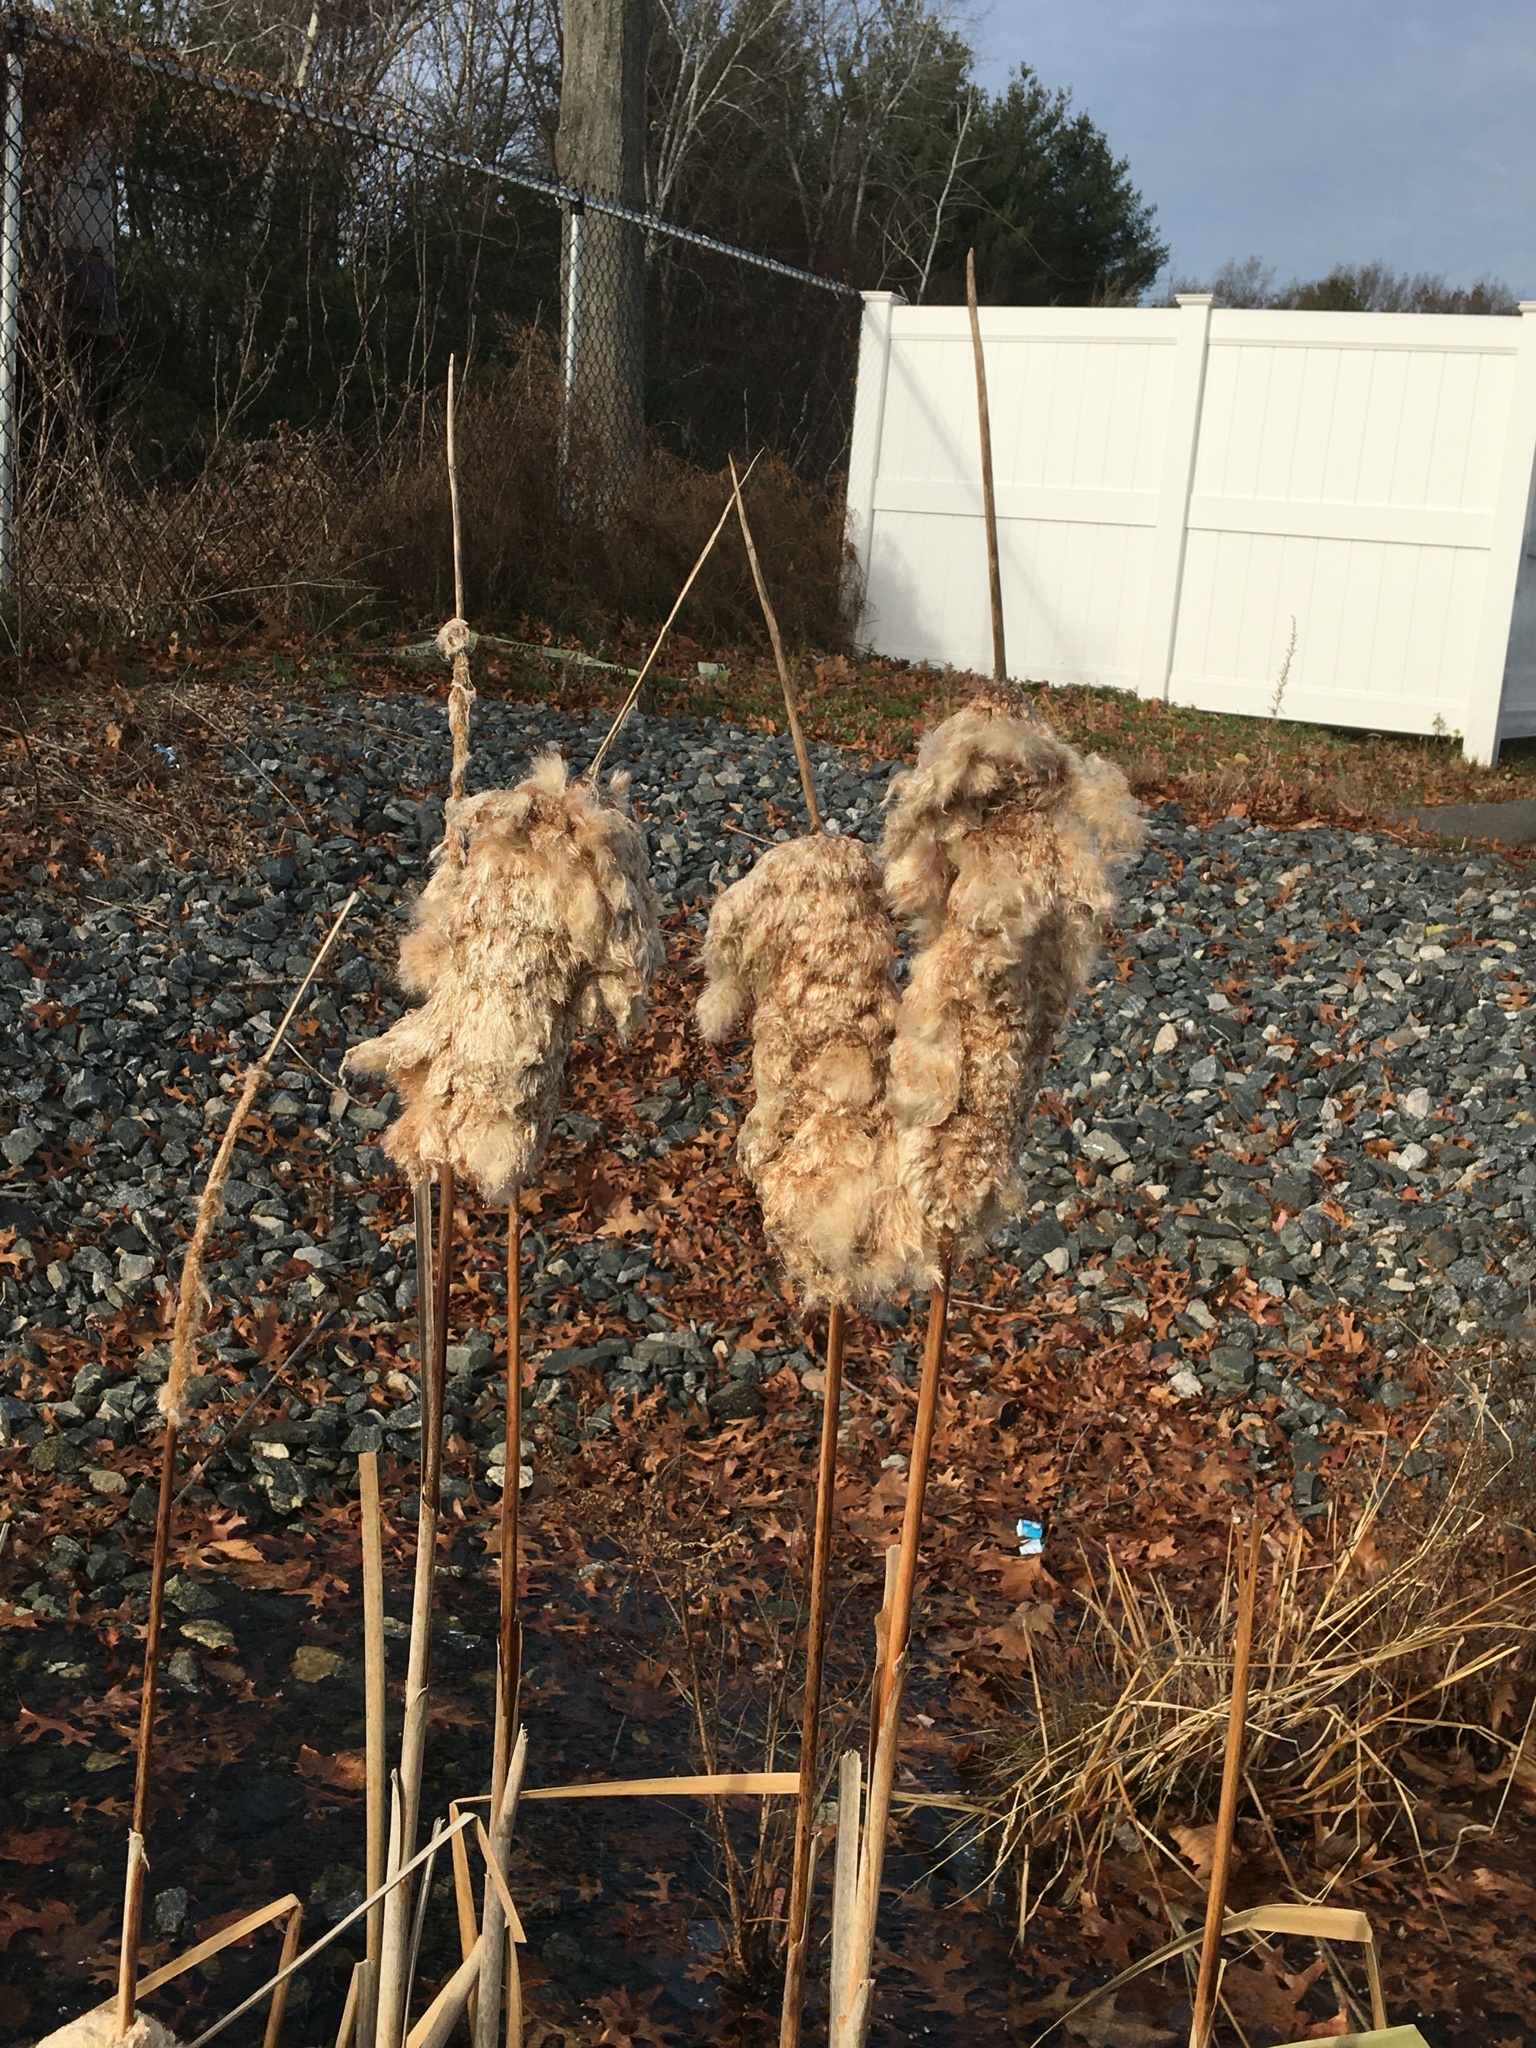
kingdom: Plantae
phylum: Tracheophyta
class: Liliopsida
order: Poales
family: Typhaceae
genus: Typha
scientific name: Typha
